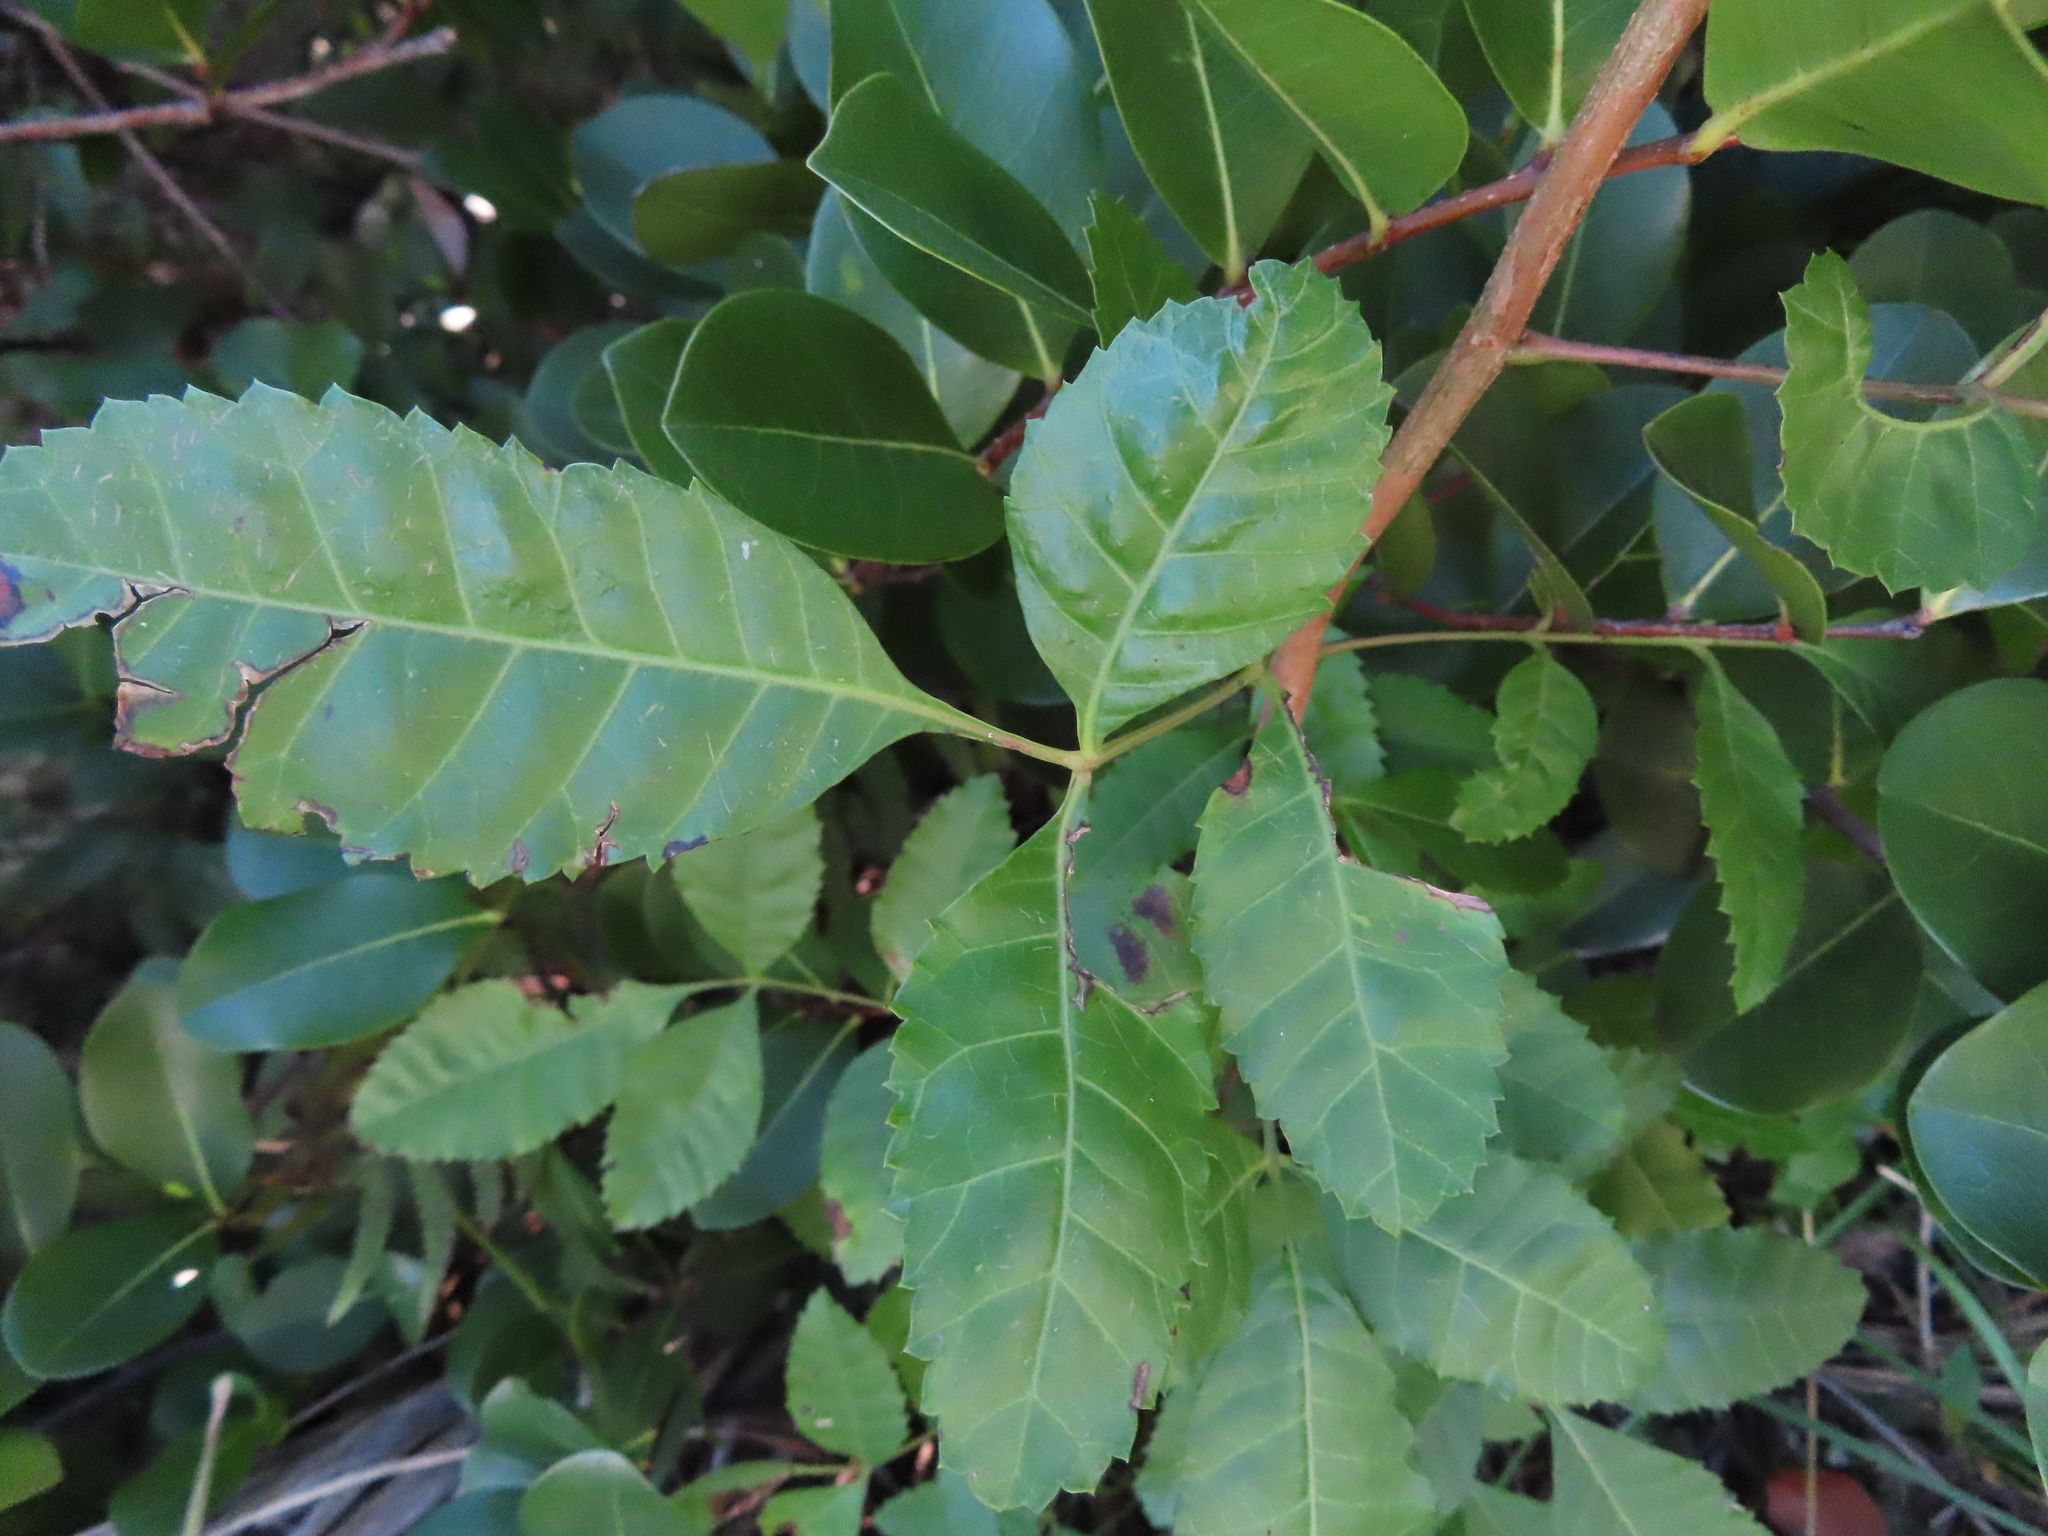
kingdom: Plantae
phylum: Tracheophyta
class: Magnoliopsida
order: Sapindales
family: Anacardiaceae
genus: Schinus
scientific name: Schinus terebinthifolia
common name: Brazilian peppertree
